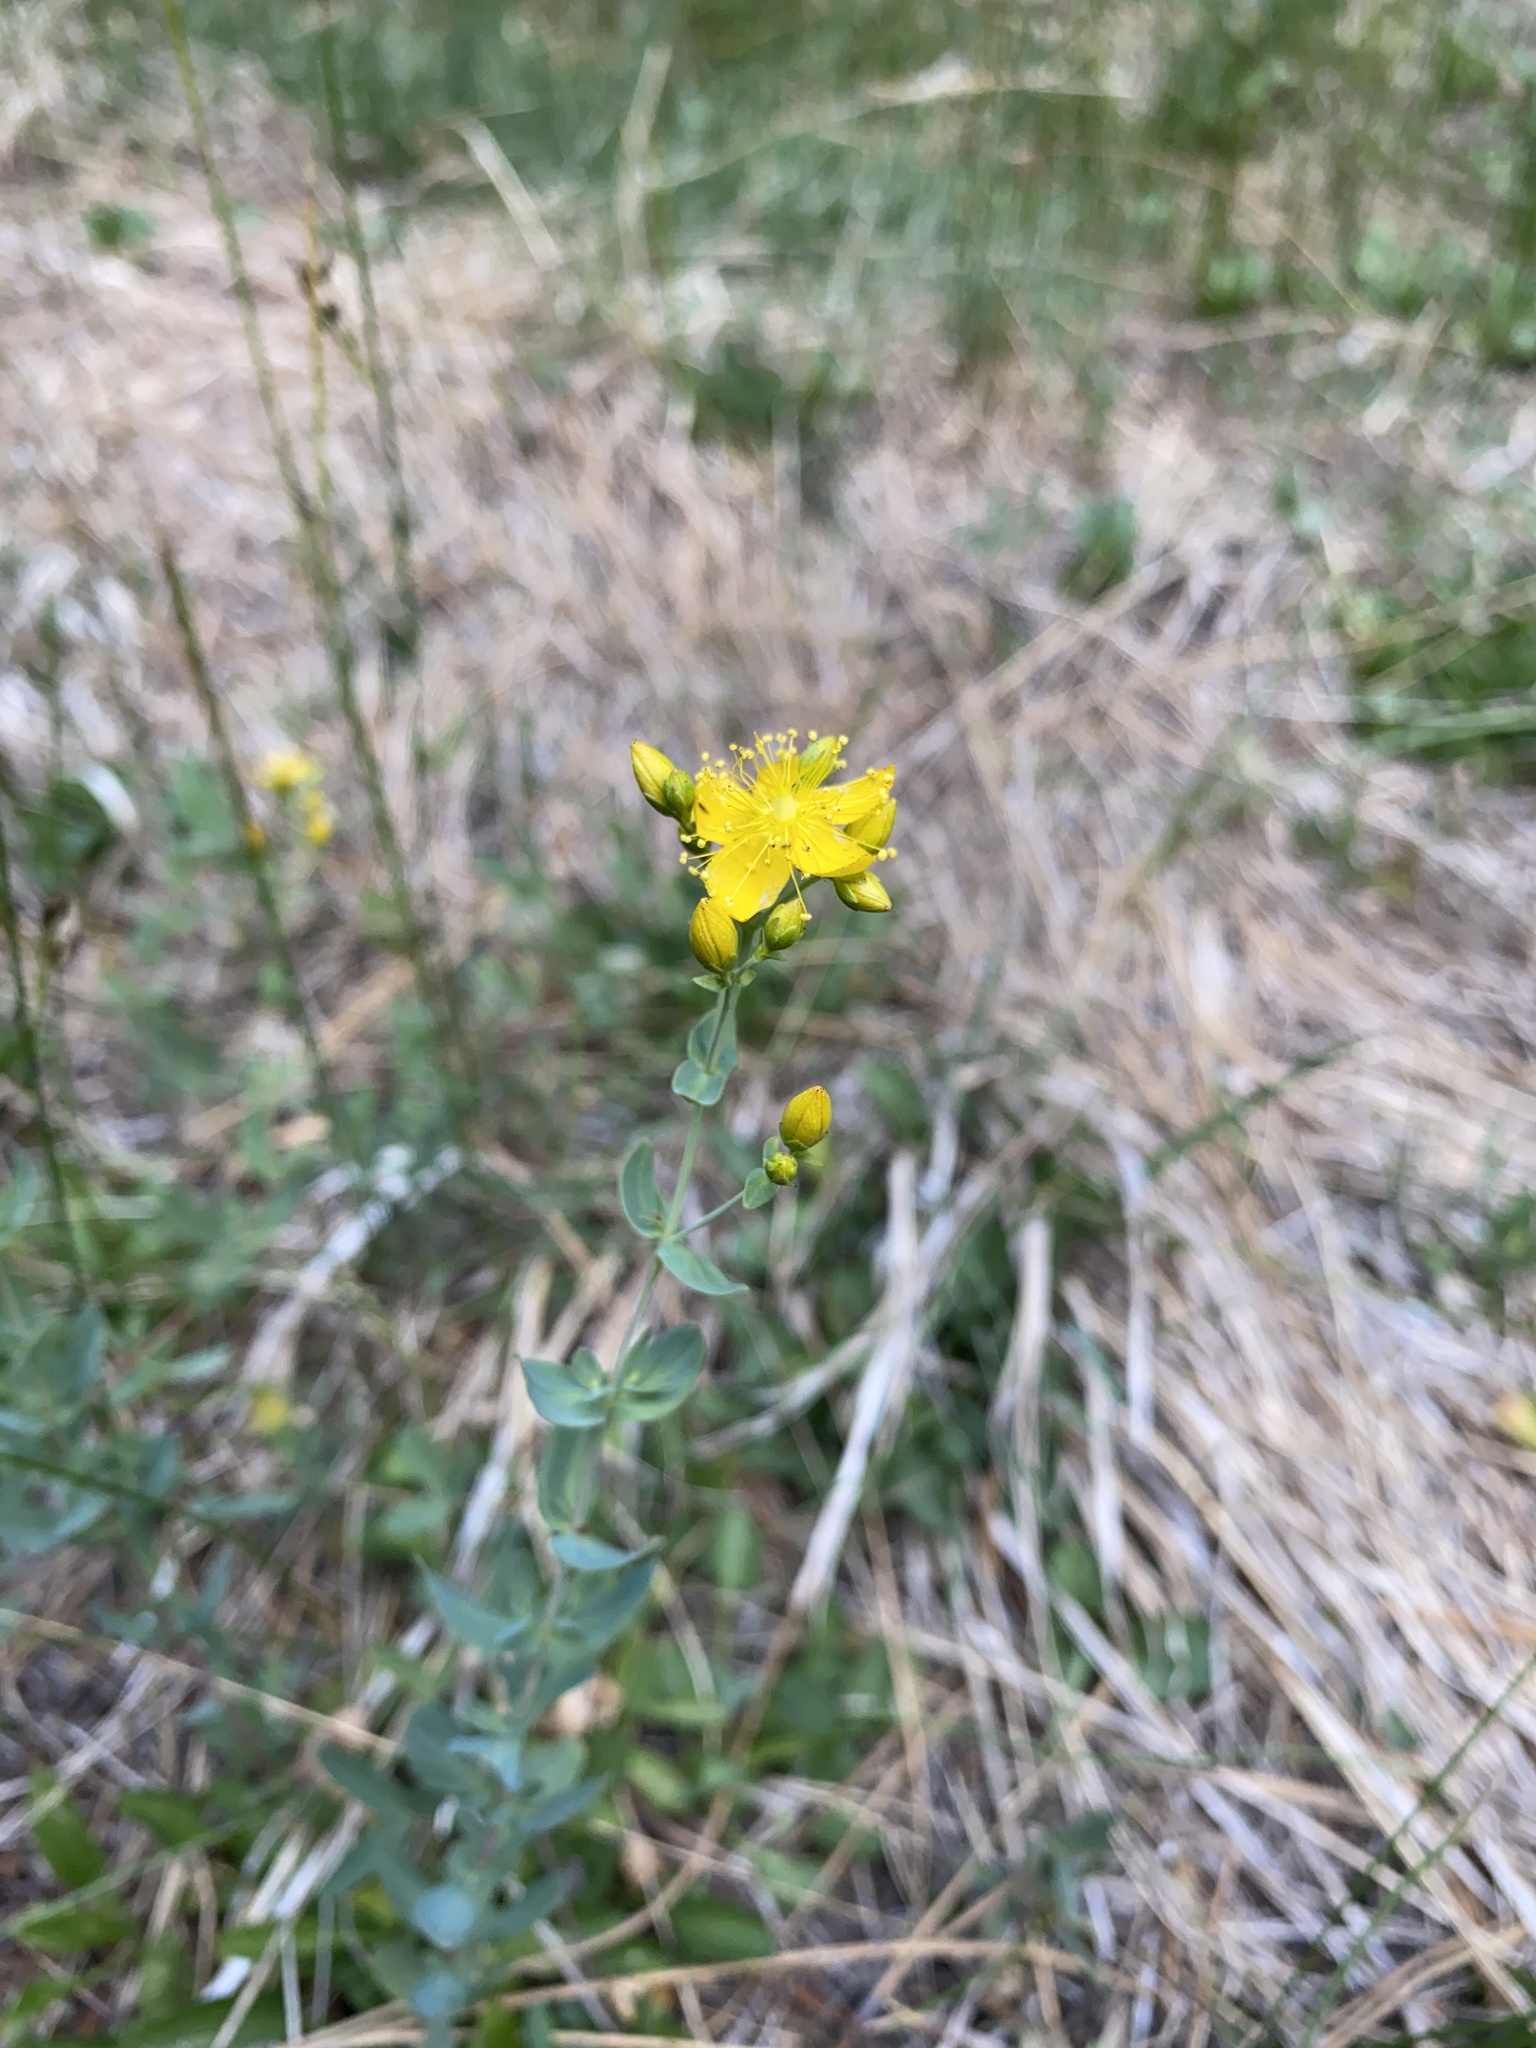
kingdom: Plantae
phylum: Tracheophyta
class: Magnoliopsida
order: Malpighiales
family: Hypericaceae
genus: Hypericum
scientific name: Hypericum scouleri
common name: Scouler's st. john's-wort
